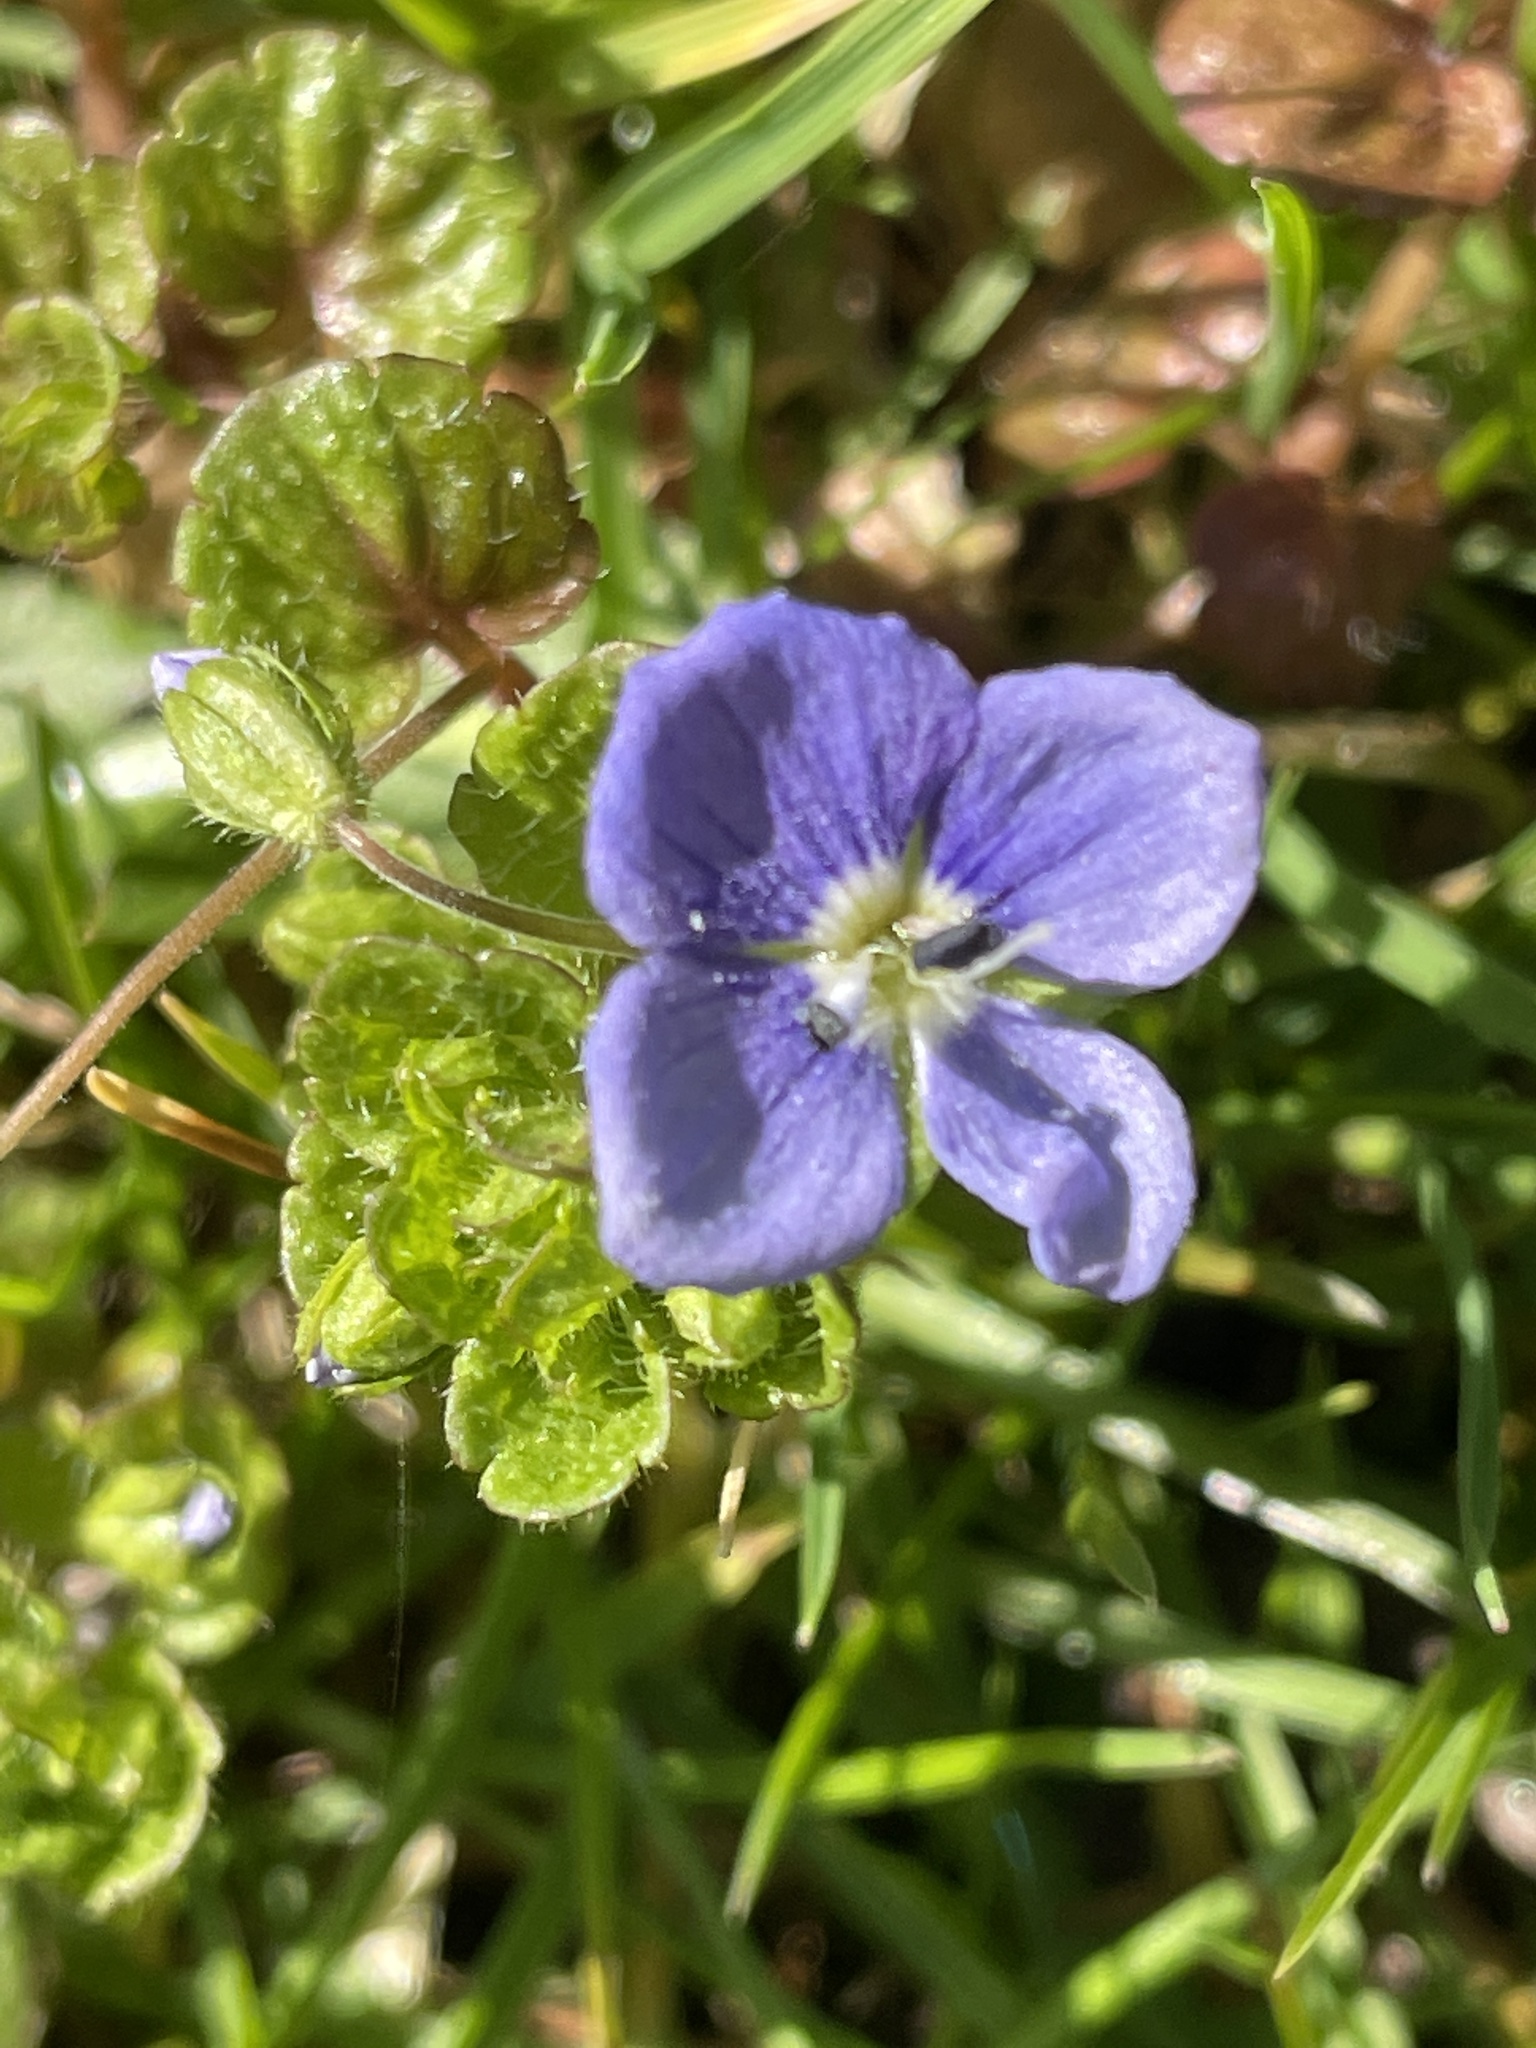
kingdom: Plantae
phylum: Tracheophyta
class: Magnoliopsida
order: Lamiales
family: Plantaginaceae
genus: Veronica
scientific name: Veronica filiformis
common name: Slender speedwell
